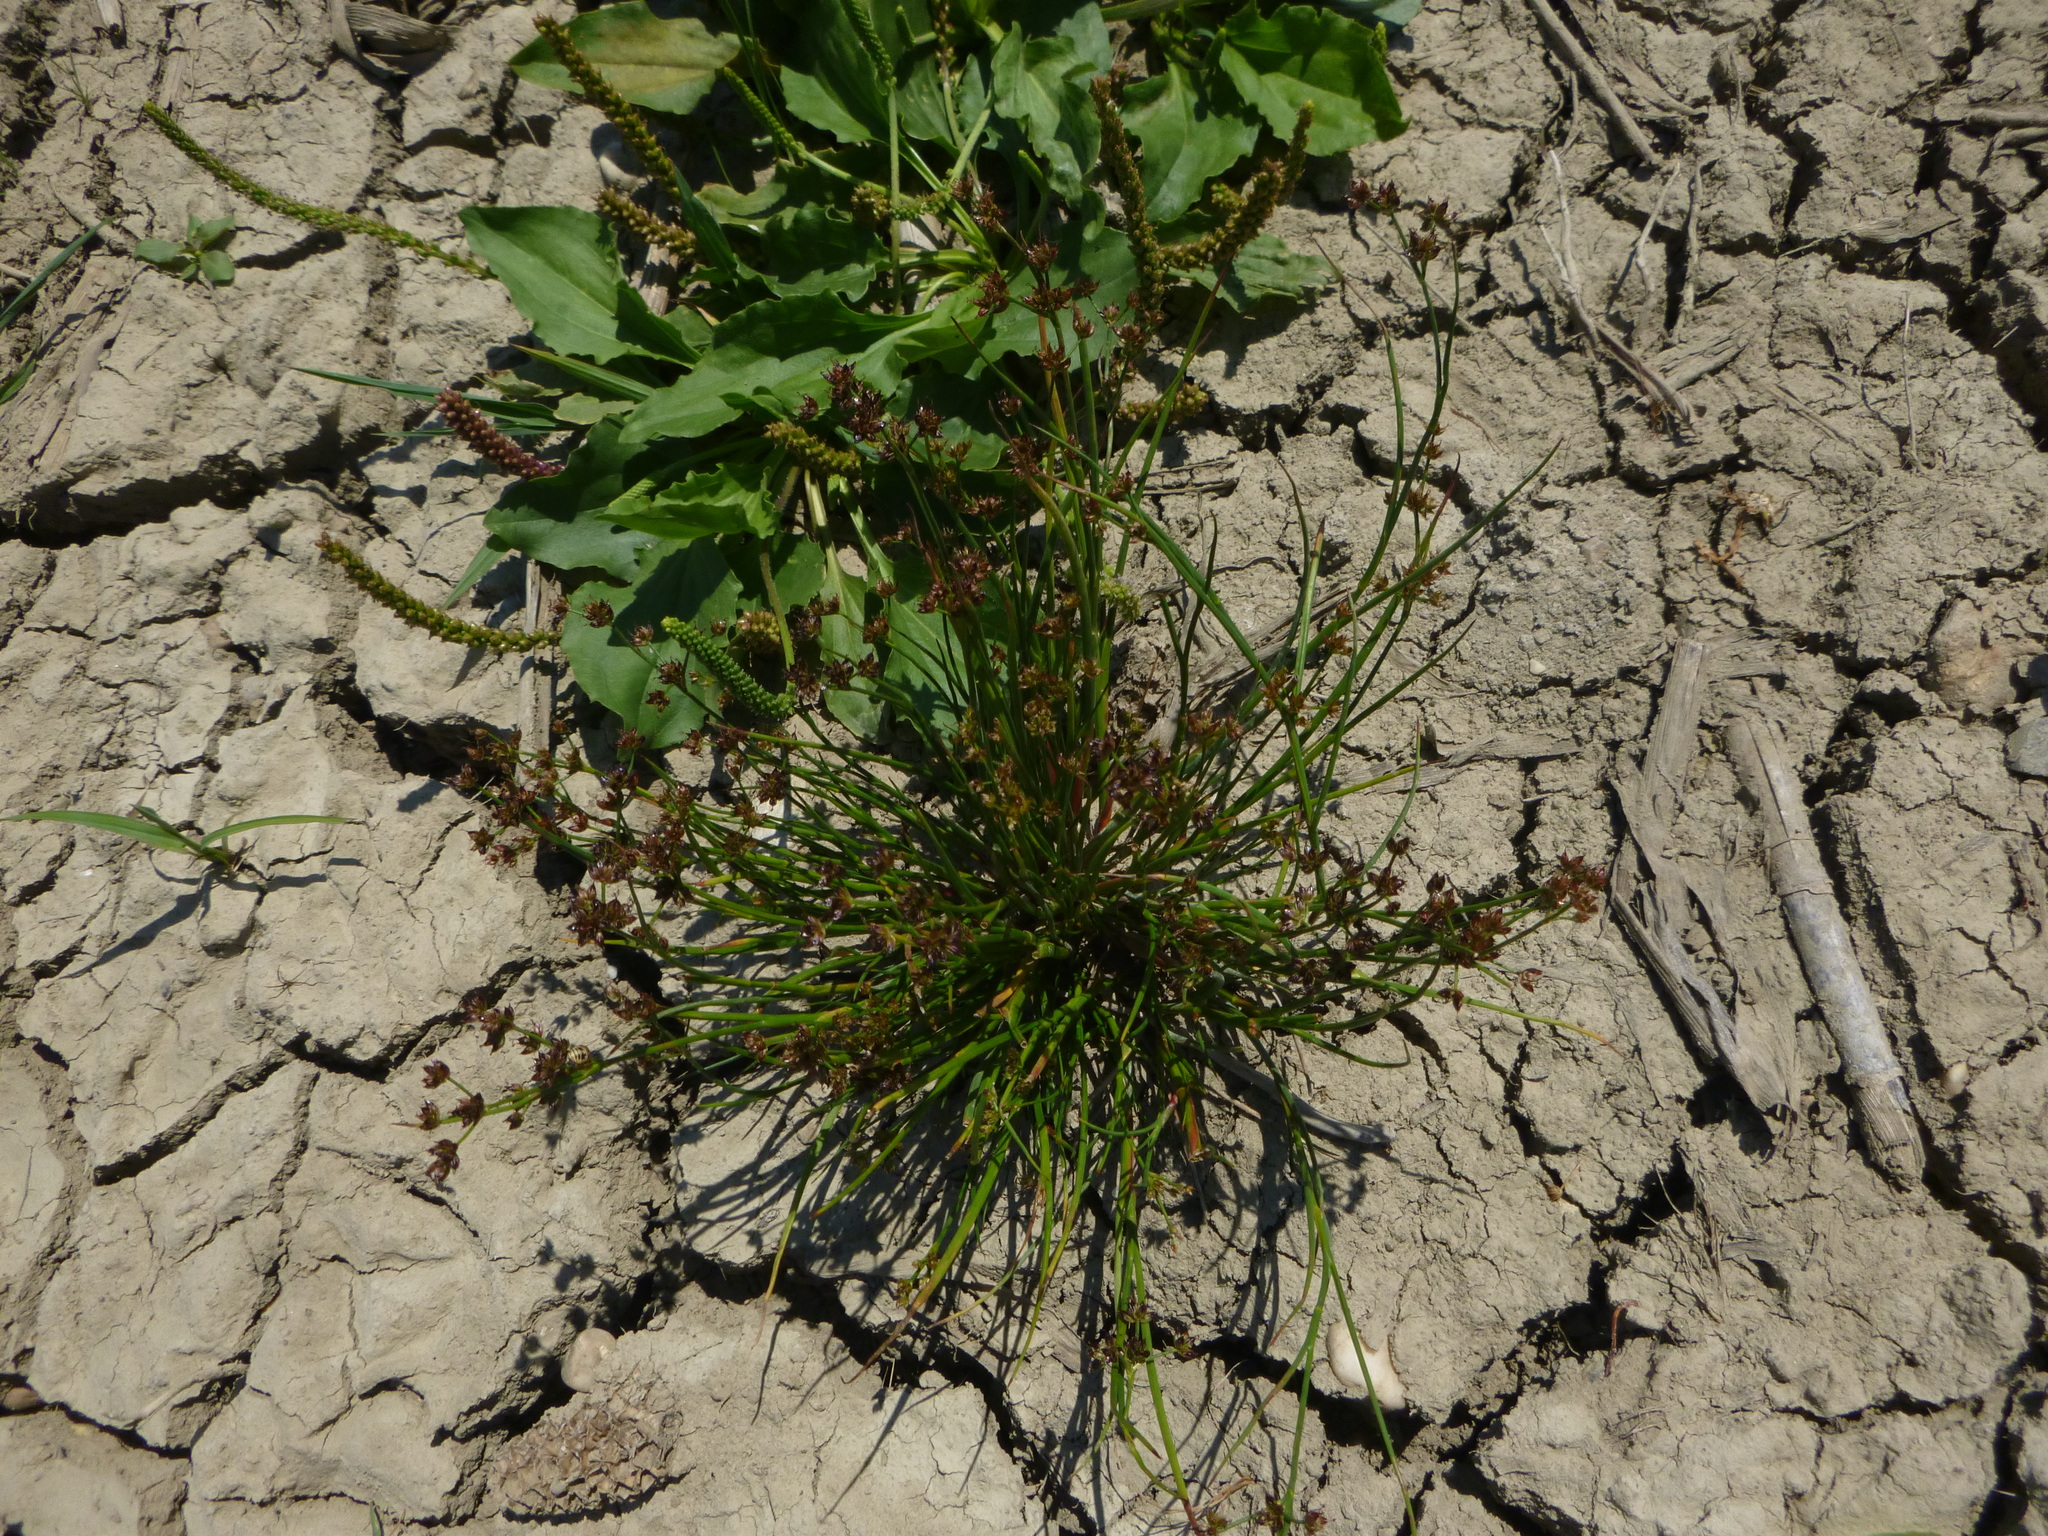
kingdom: Plantae
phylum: Tracheophyta
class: Liliopsida
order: Poales
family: Juncaceae
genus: Juncus
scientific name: Juncus articulatus
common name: Jointed rush
